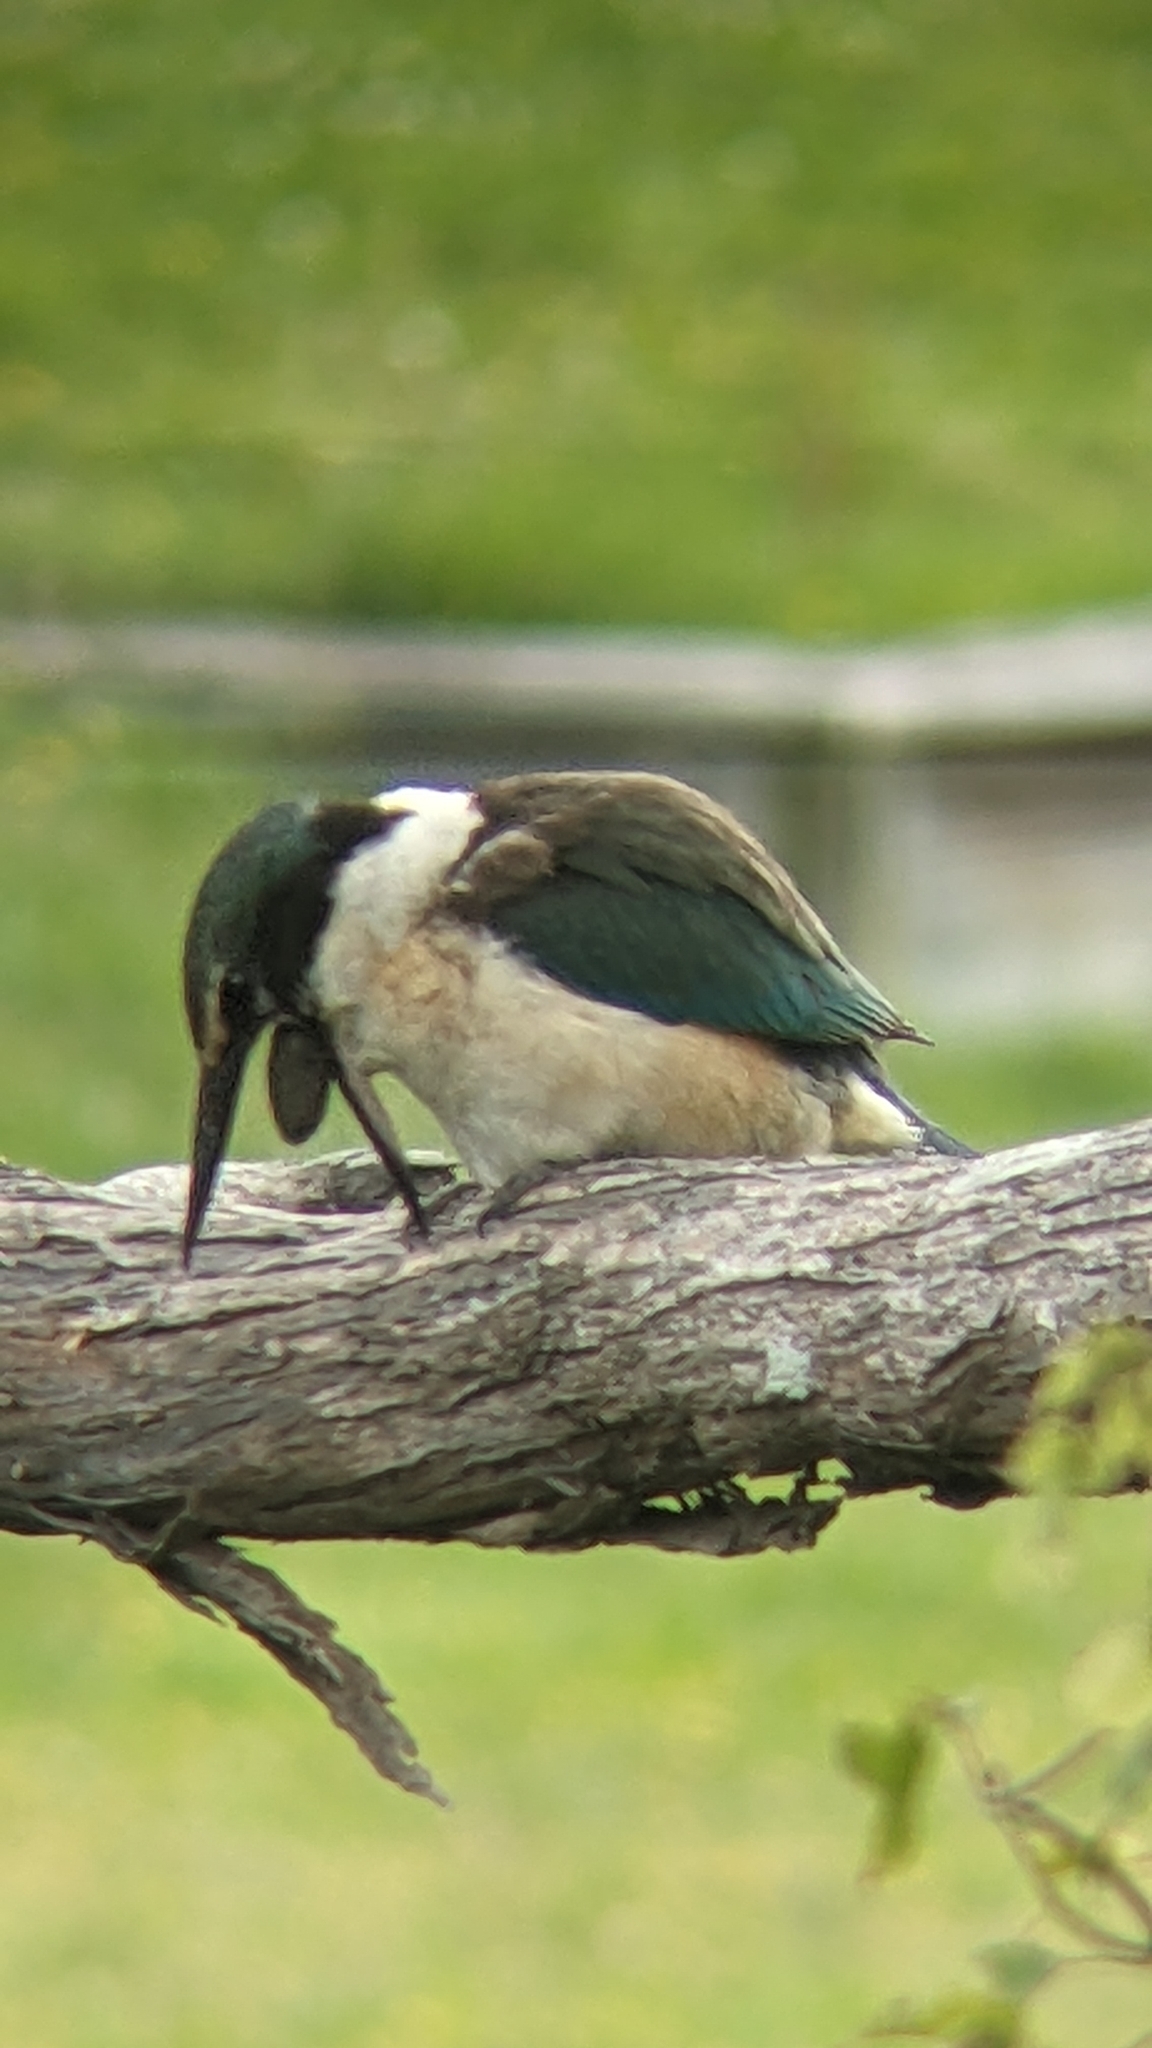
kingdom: Animalia
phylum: Chordata
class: Aves
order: Coraciiformes
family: Alcedinidae
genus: Todiramphus
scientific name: Todiramphus sanctus
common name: Sacred kingfisher
